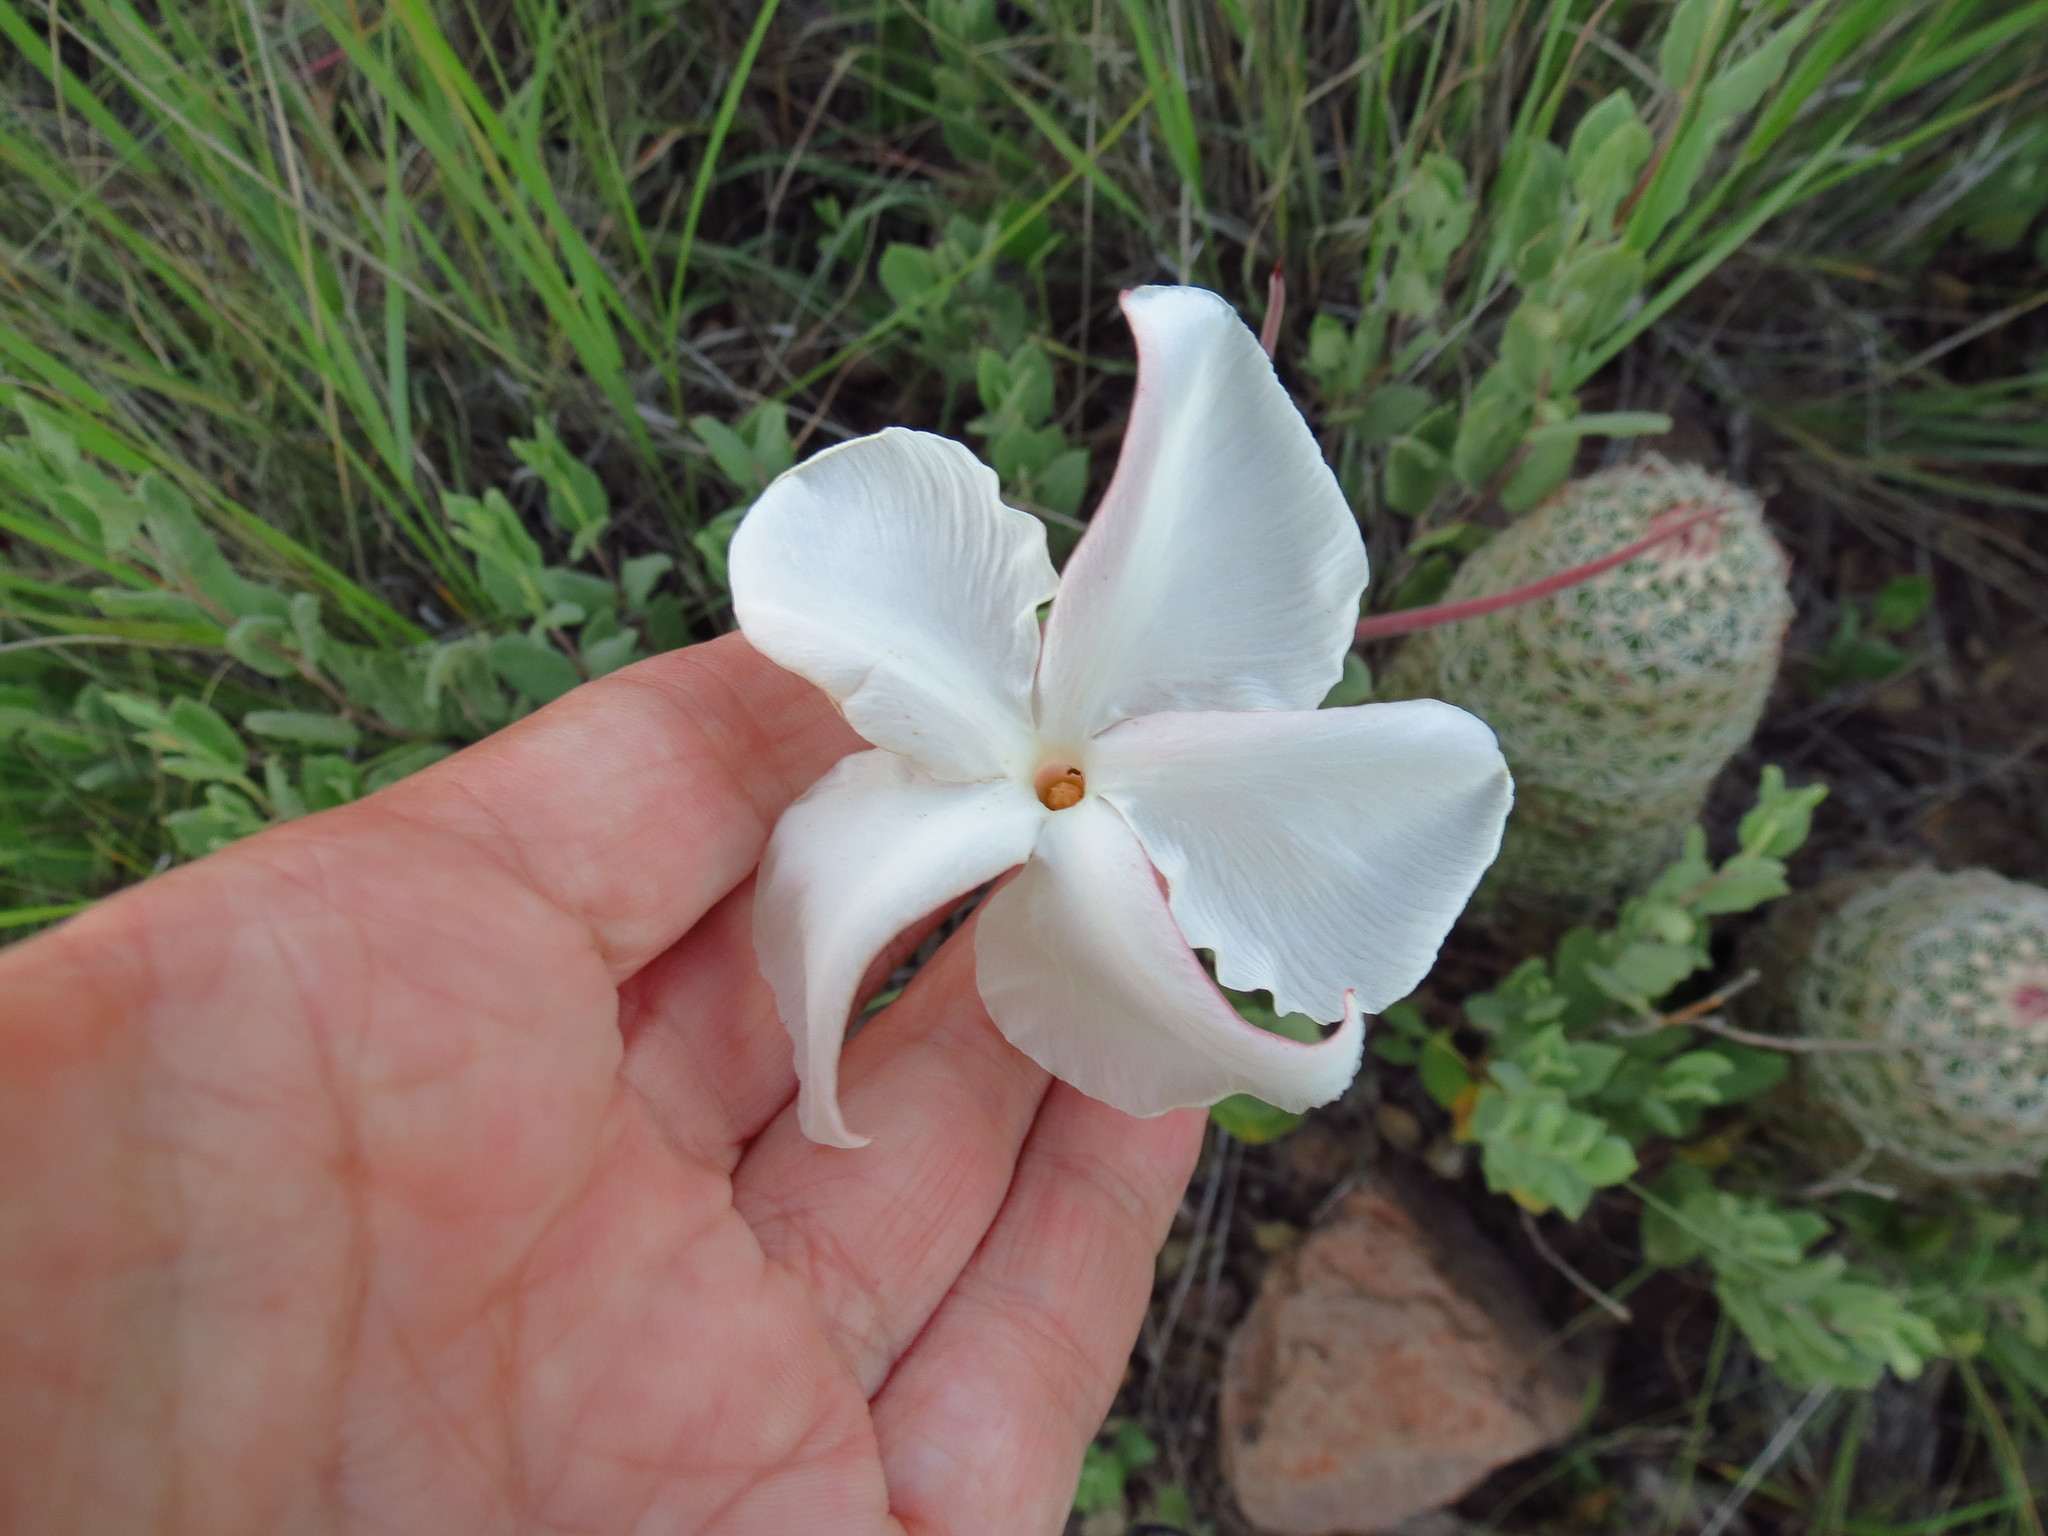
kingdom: Plantae
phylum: Tracheophyta
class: Magnoliopsida
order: Gentianales
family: Apocynaceae
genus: Mandevilla
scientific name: Mandevilla macrosiphon
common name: Plateau rocktrumpet
